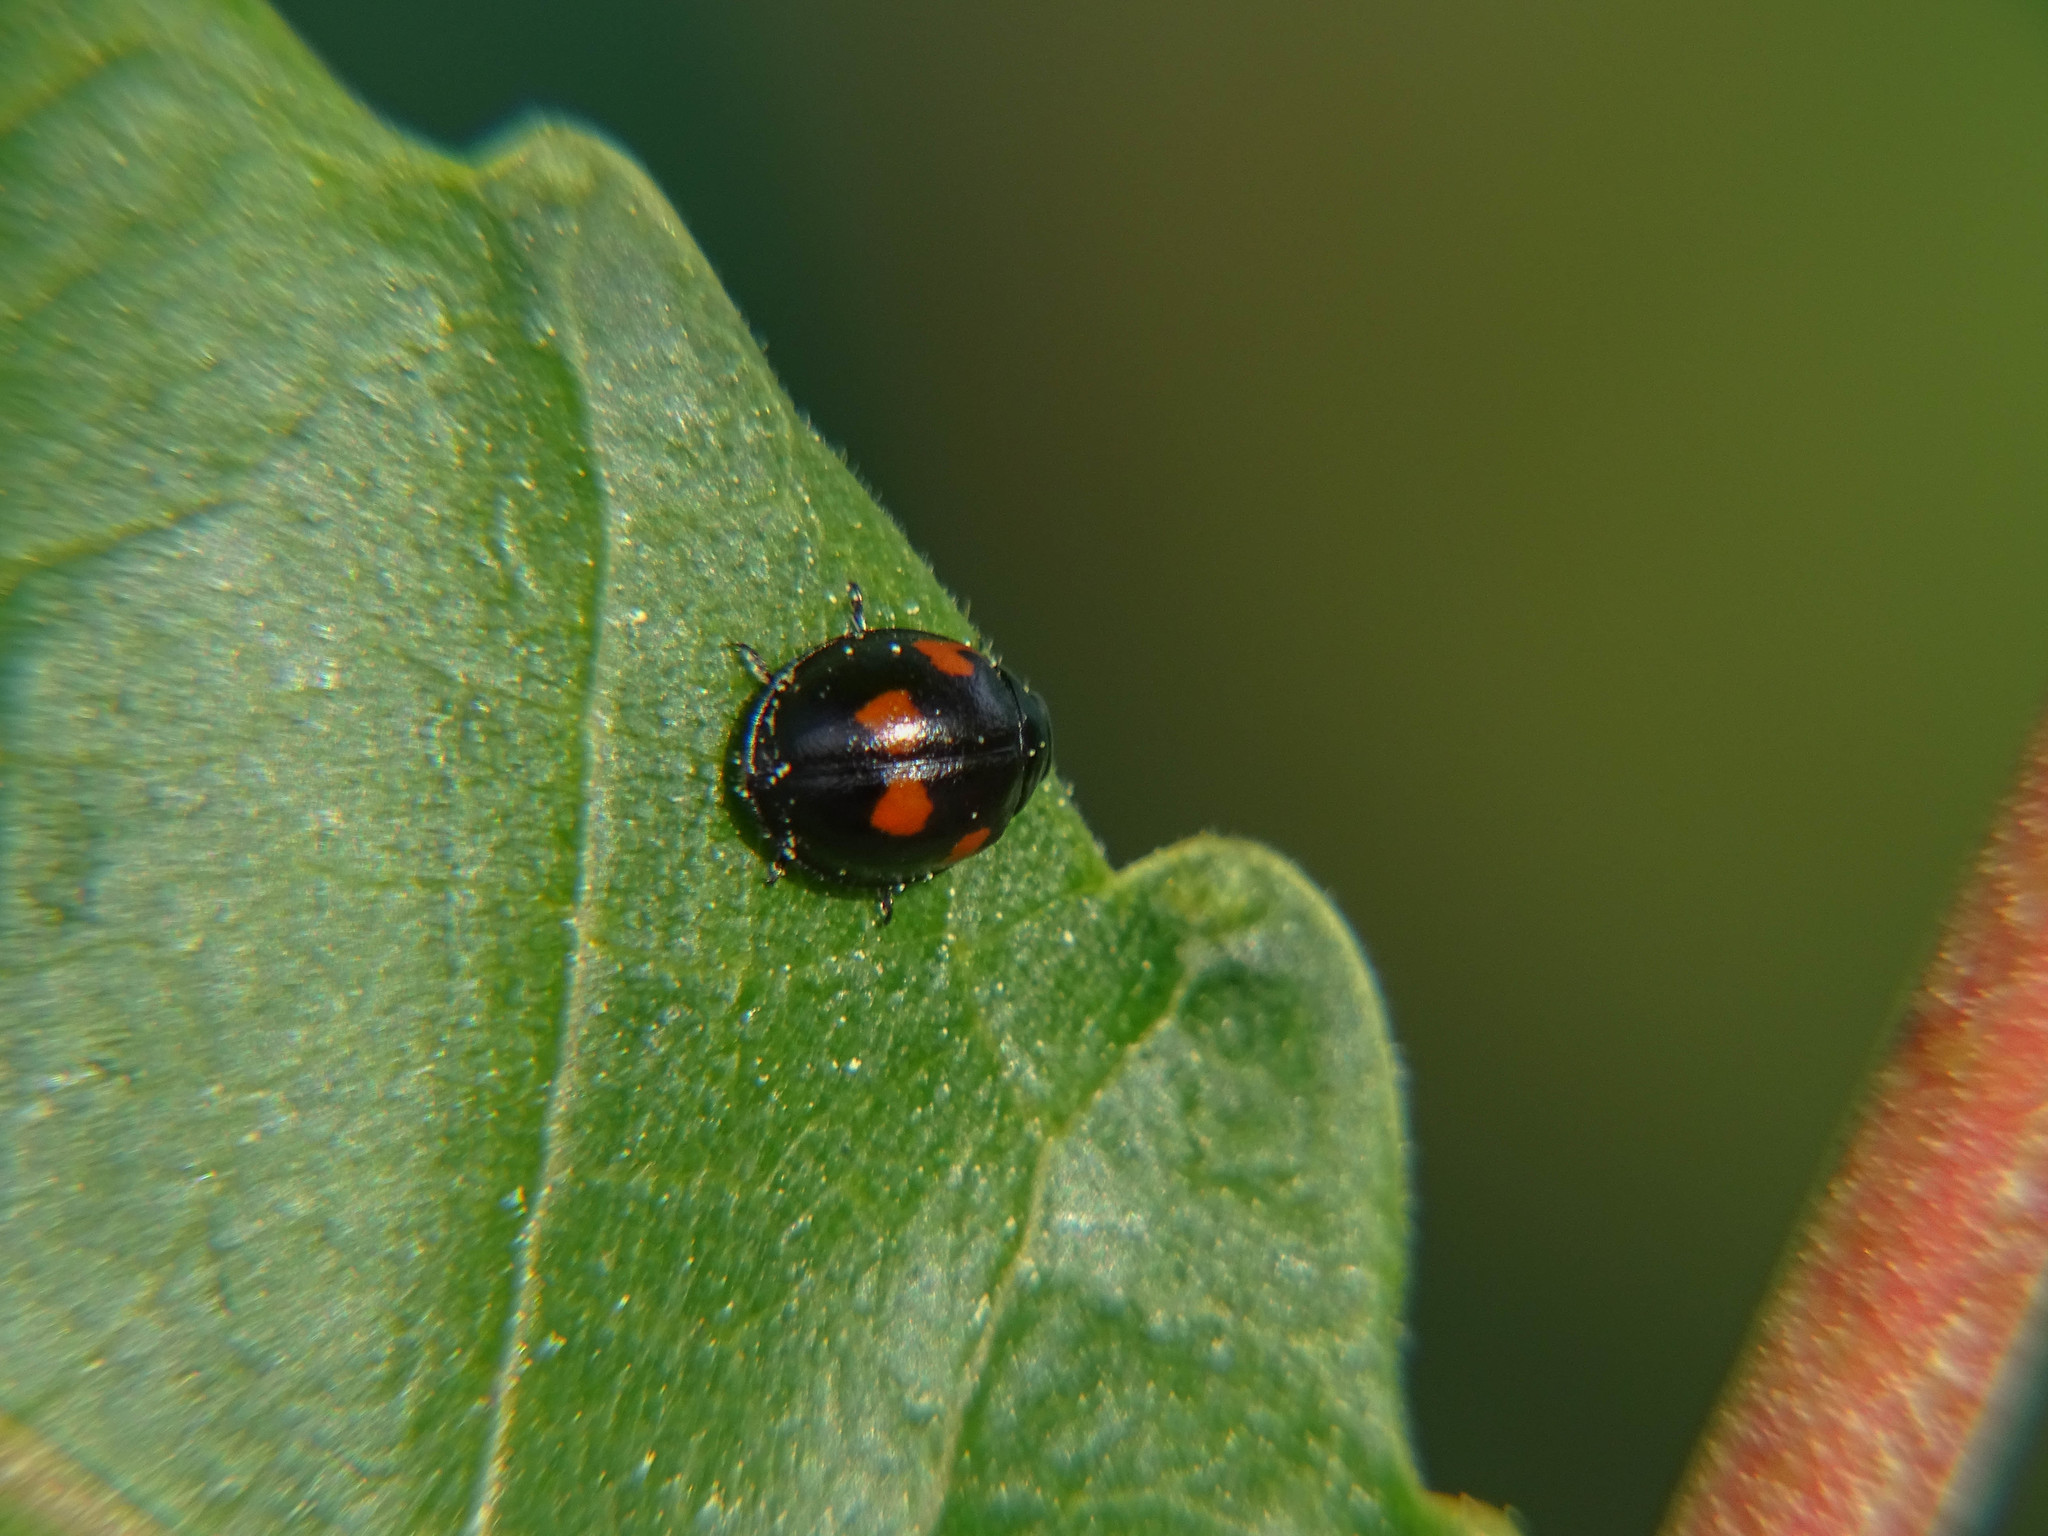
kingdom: Animalia
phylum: Arthropoda
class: Insecta
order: Coleoptera
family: Coccinellidae
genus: Brumus
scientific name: Brumus quadripustulatus
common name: Ladybird beetle
